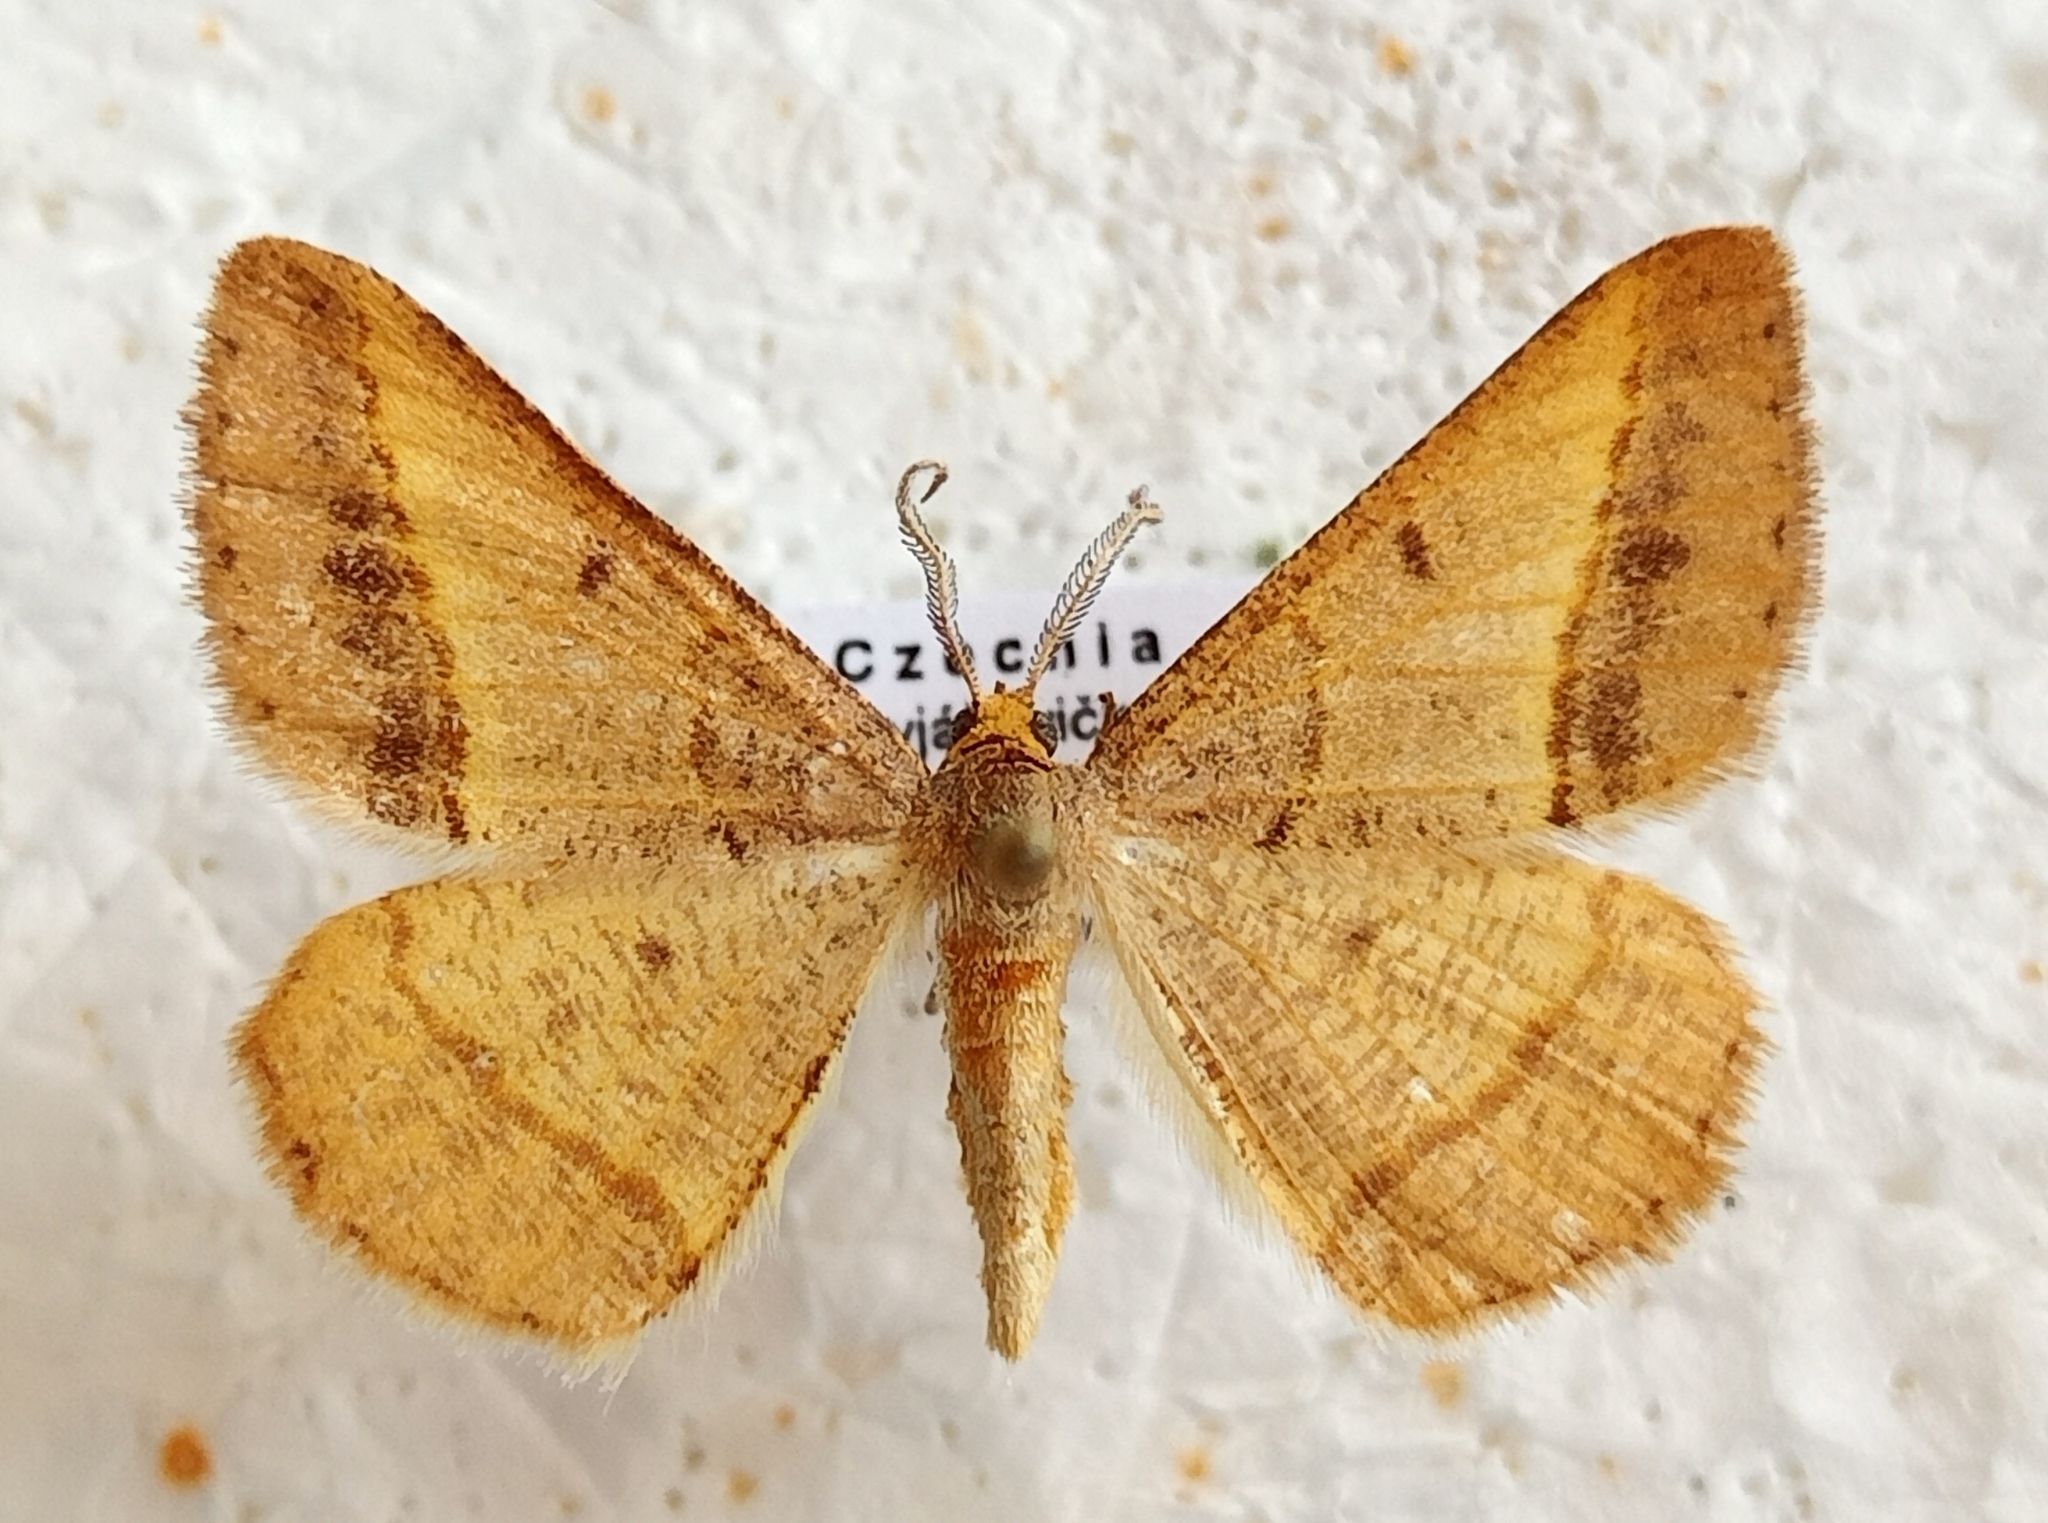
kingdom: Animalia
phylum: Arthropoda
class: Insecta
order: Lepidoptera
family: Geometridae
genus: Tephrina
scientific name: Tephrina arenacearia
